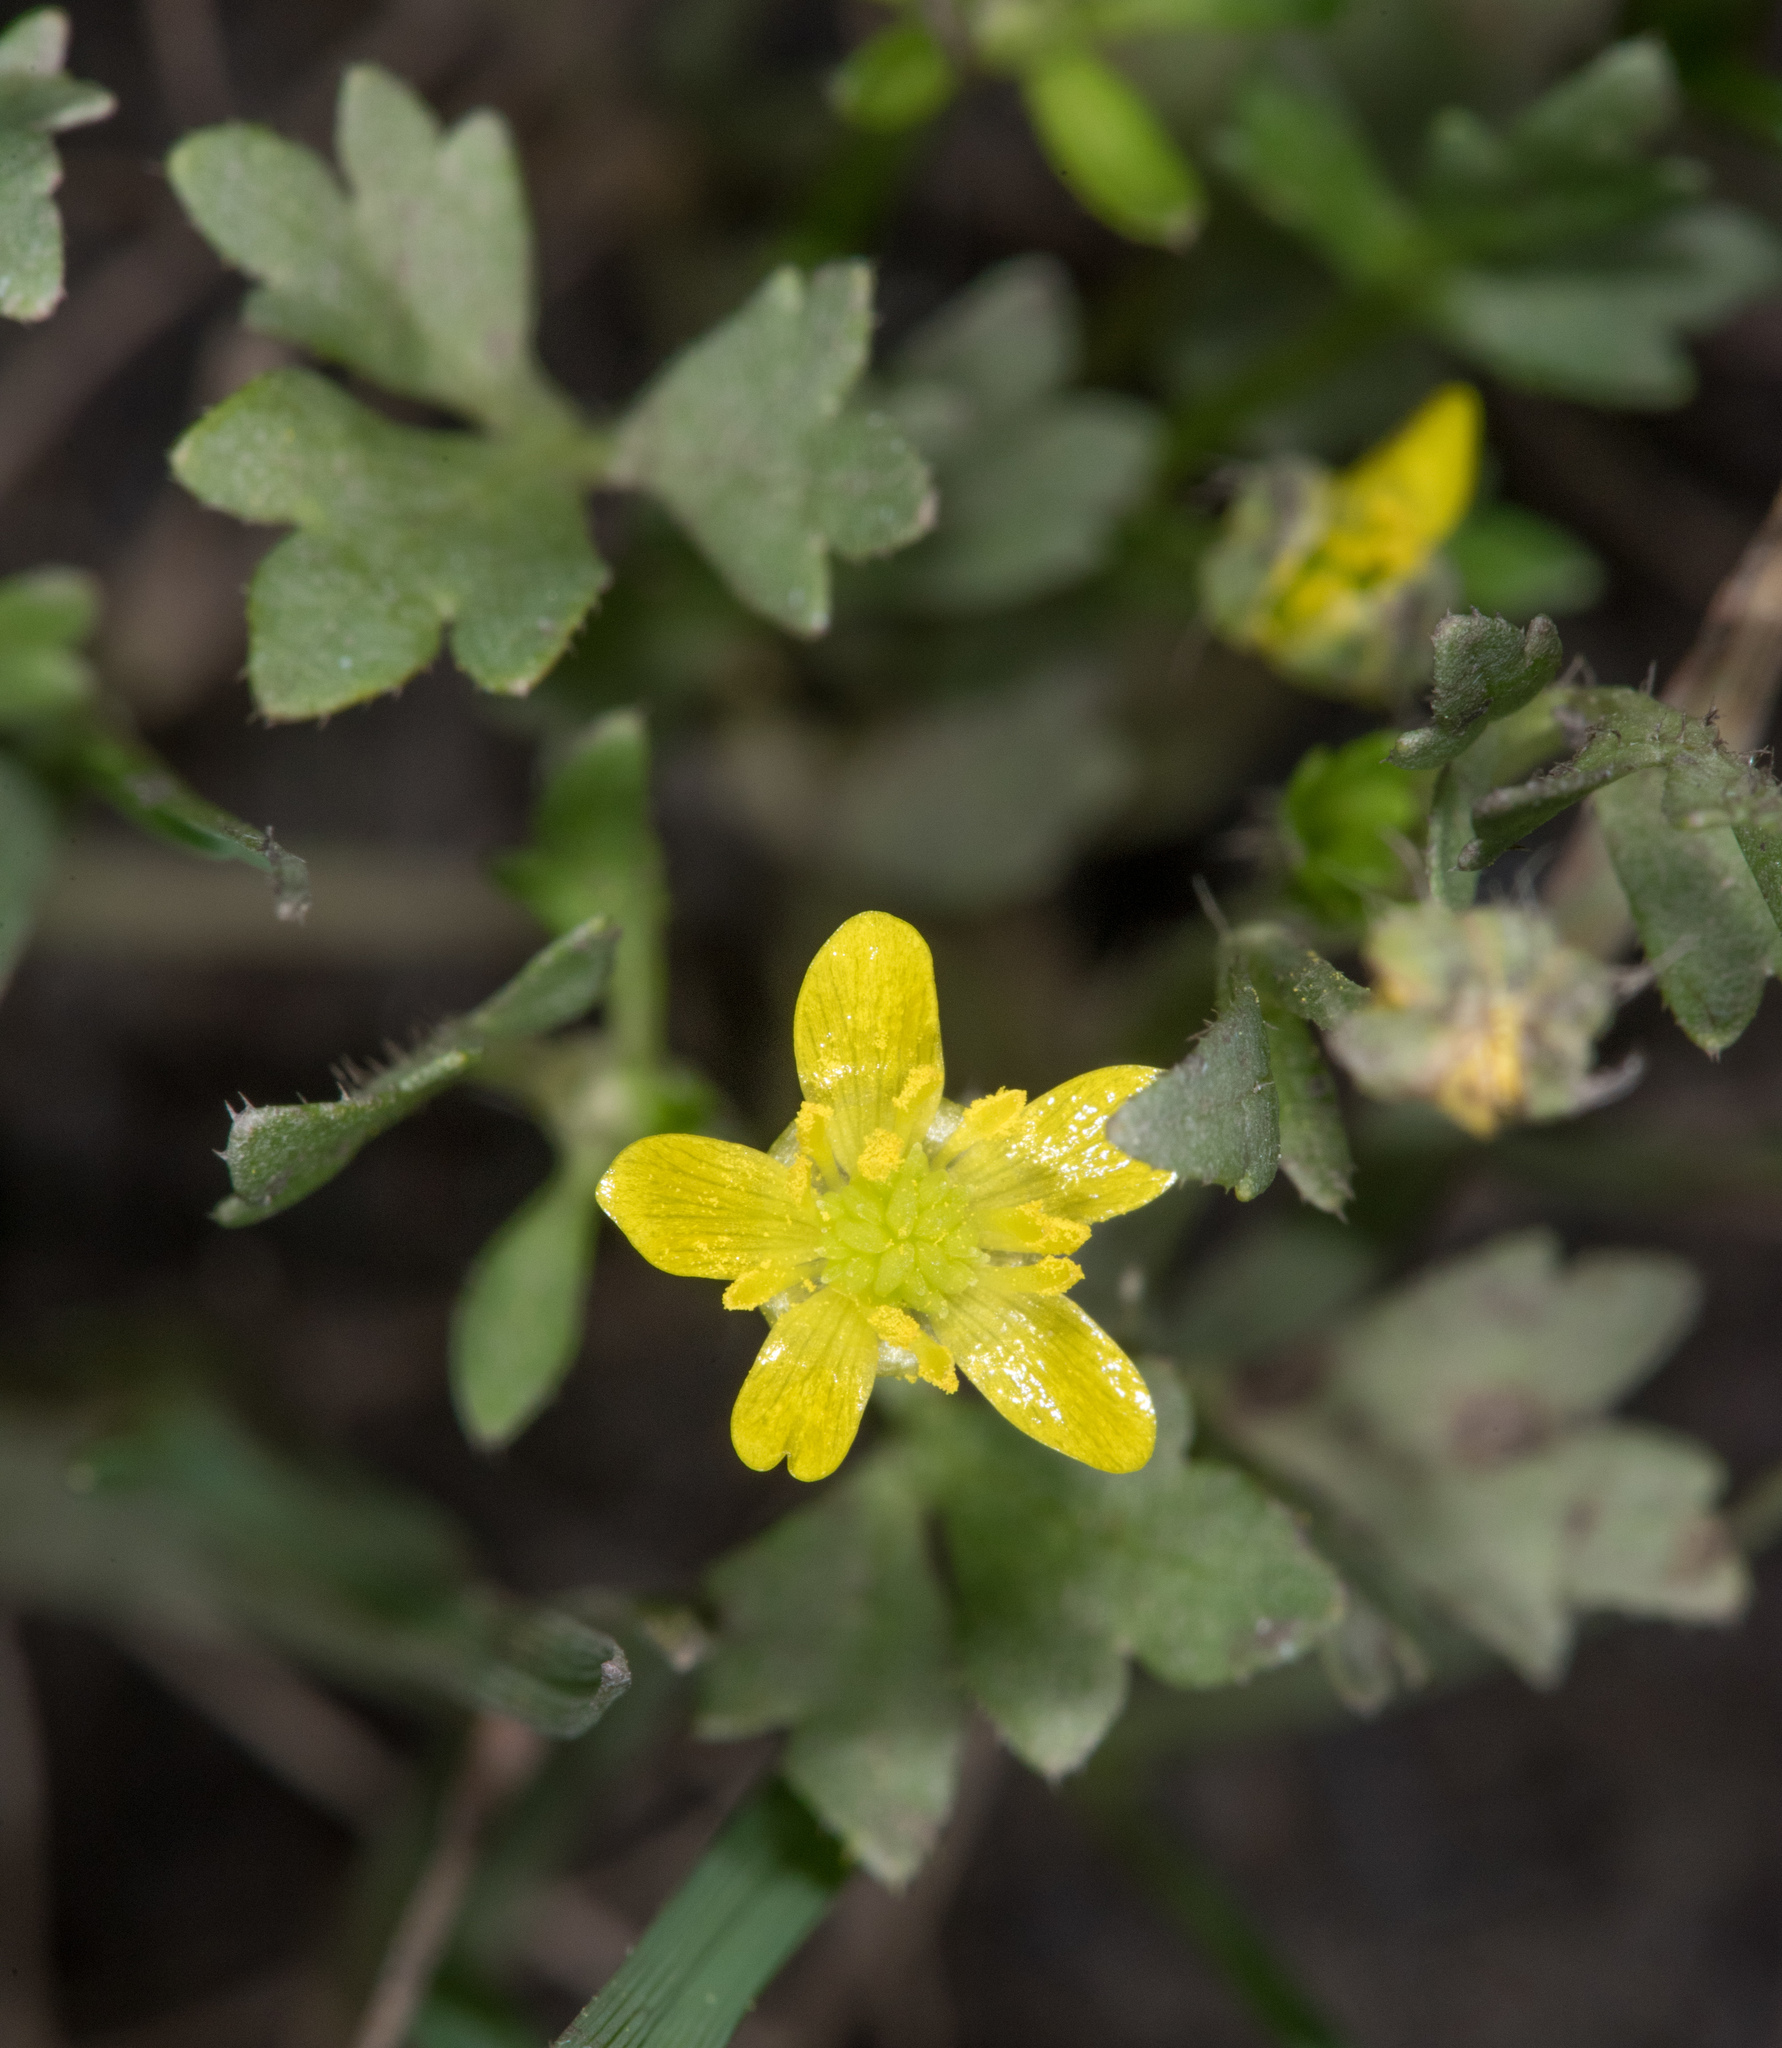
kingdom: Plantae
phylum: Tracheophyta
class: Magnoliopsida
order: Ranunculales
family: Ranunculaceae
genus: Ranunculus
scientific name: Ranunculus muricatus
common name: Rough-fruited buttercup
